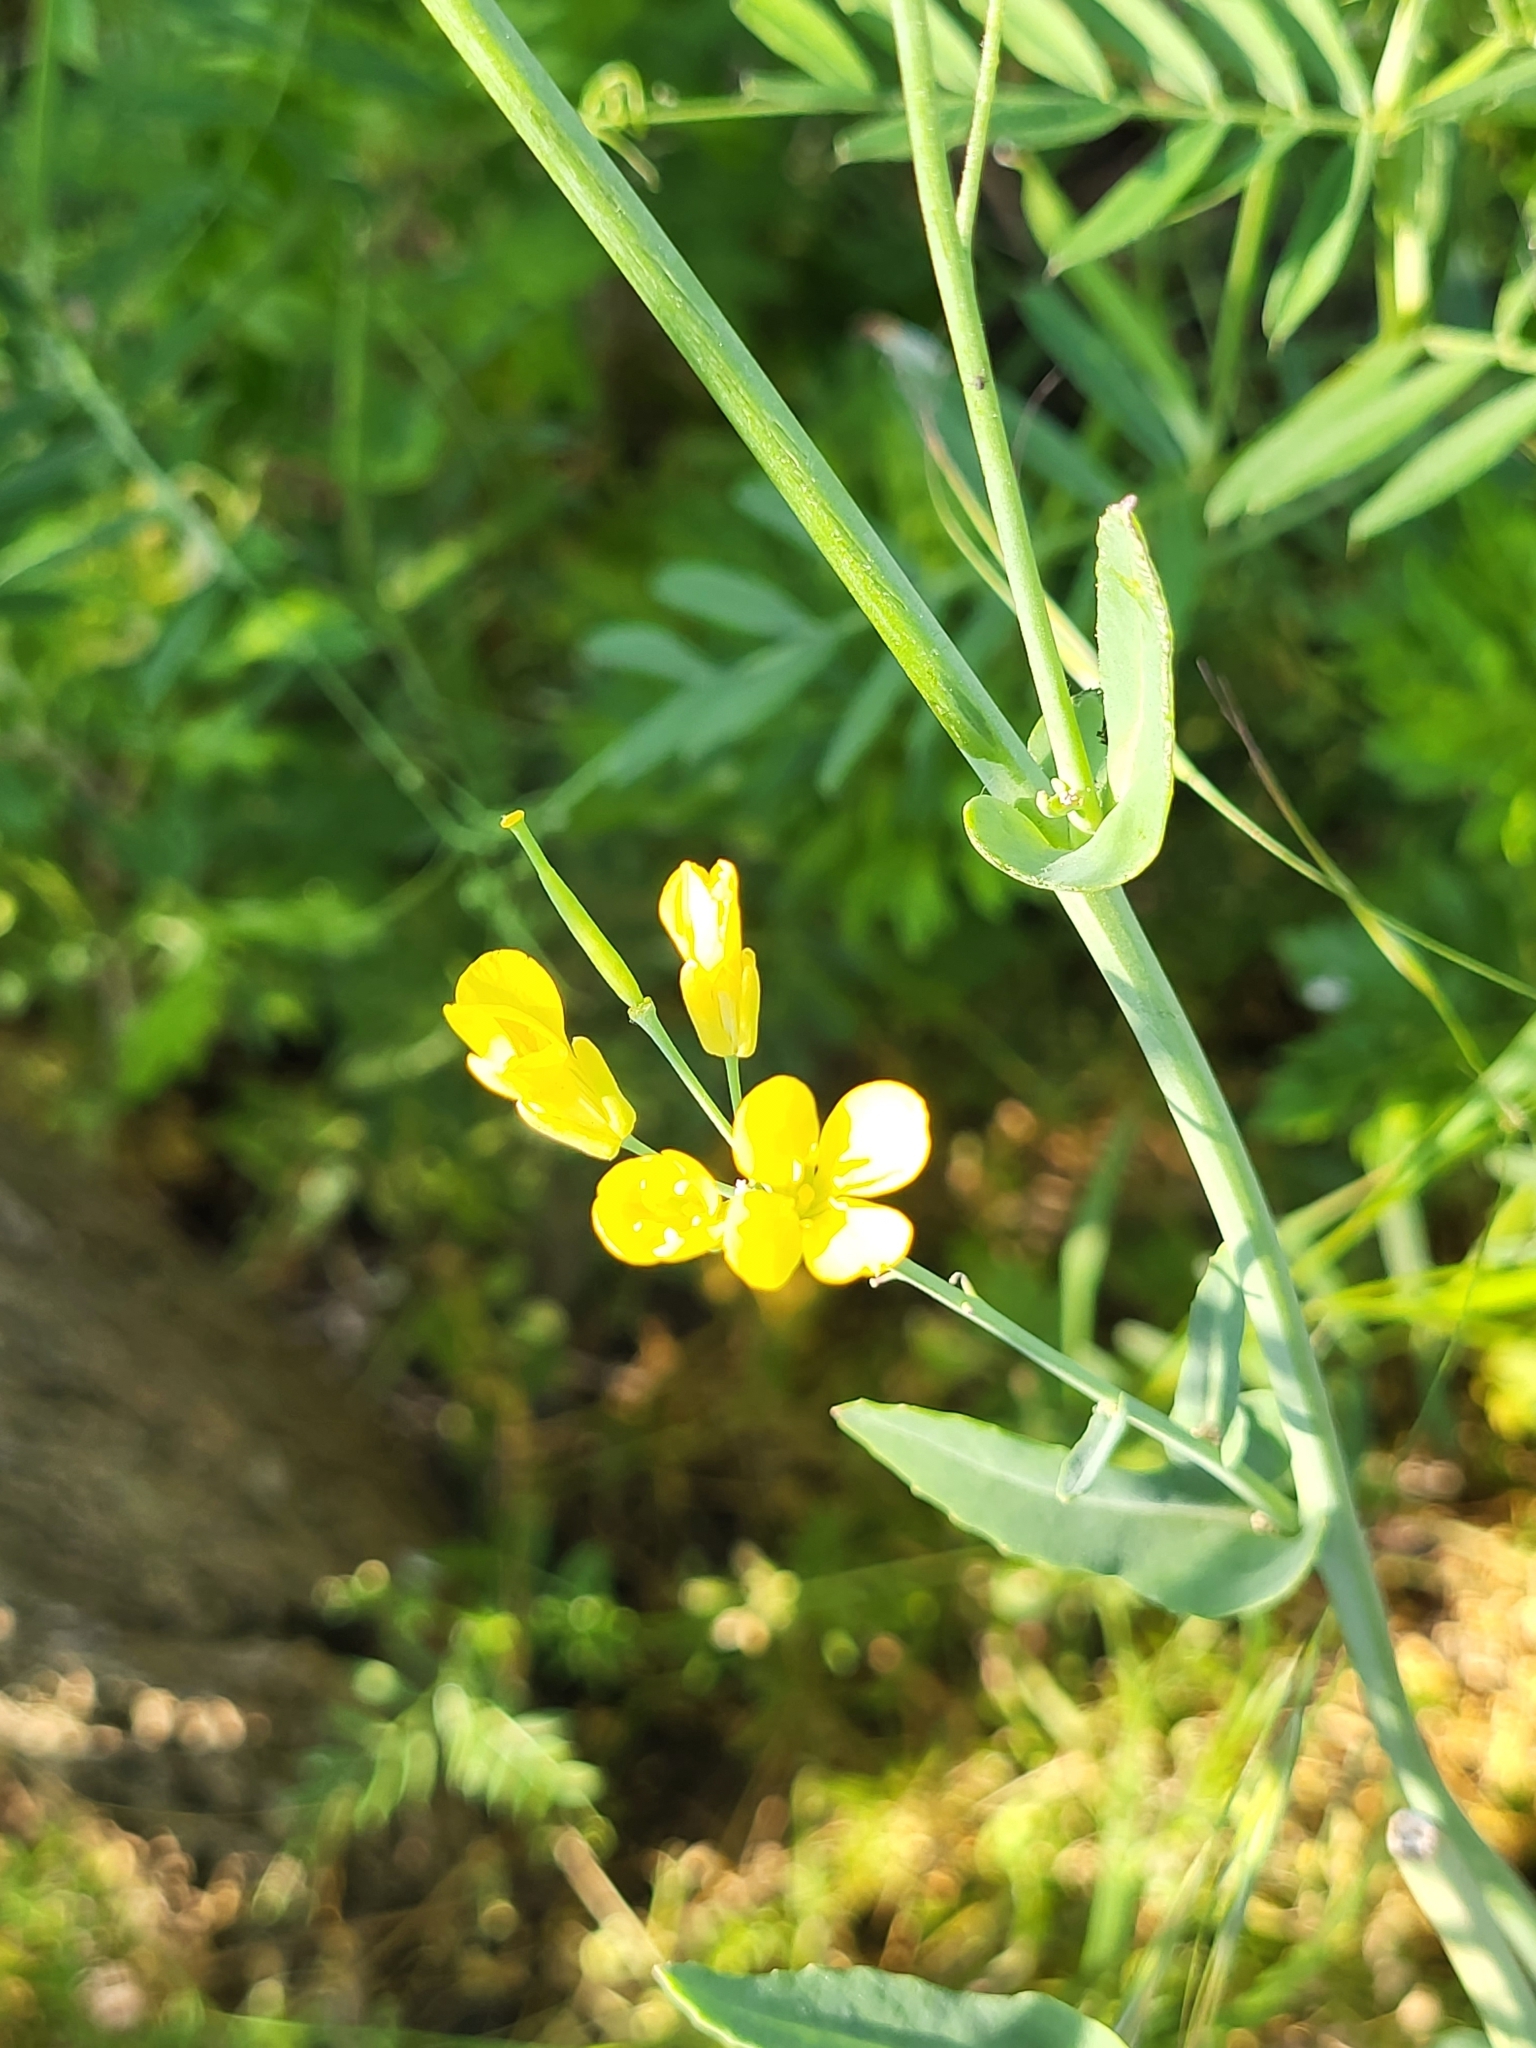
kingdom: Plantae
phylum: Tracheophyta
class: Magnoliopsida
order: Brassicales
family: Brassicaceae
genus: Brassica
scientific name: Brassica napus
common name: Rape
